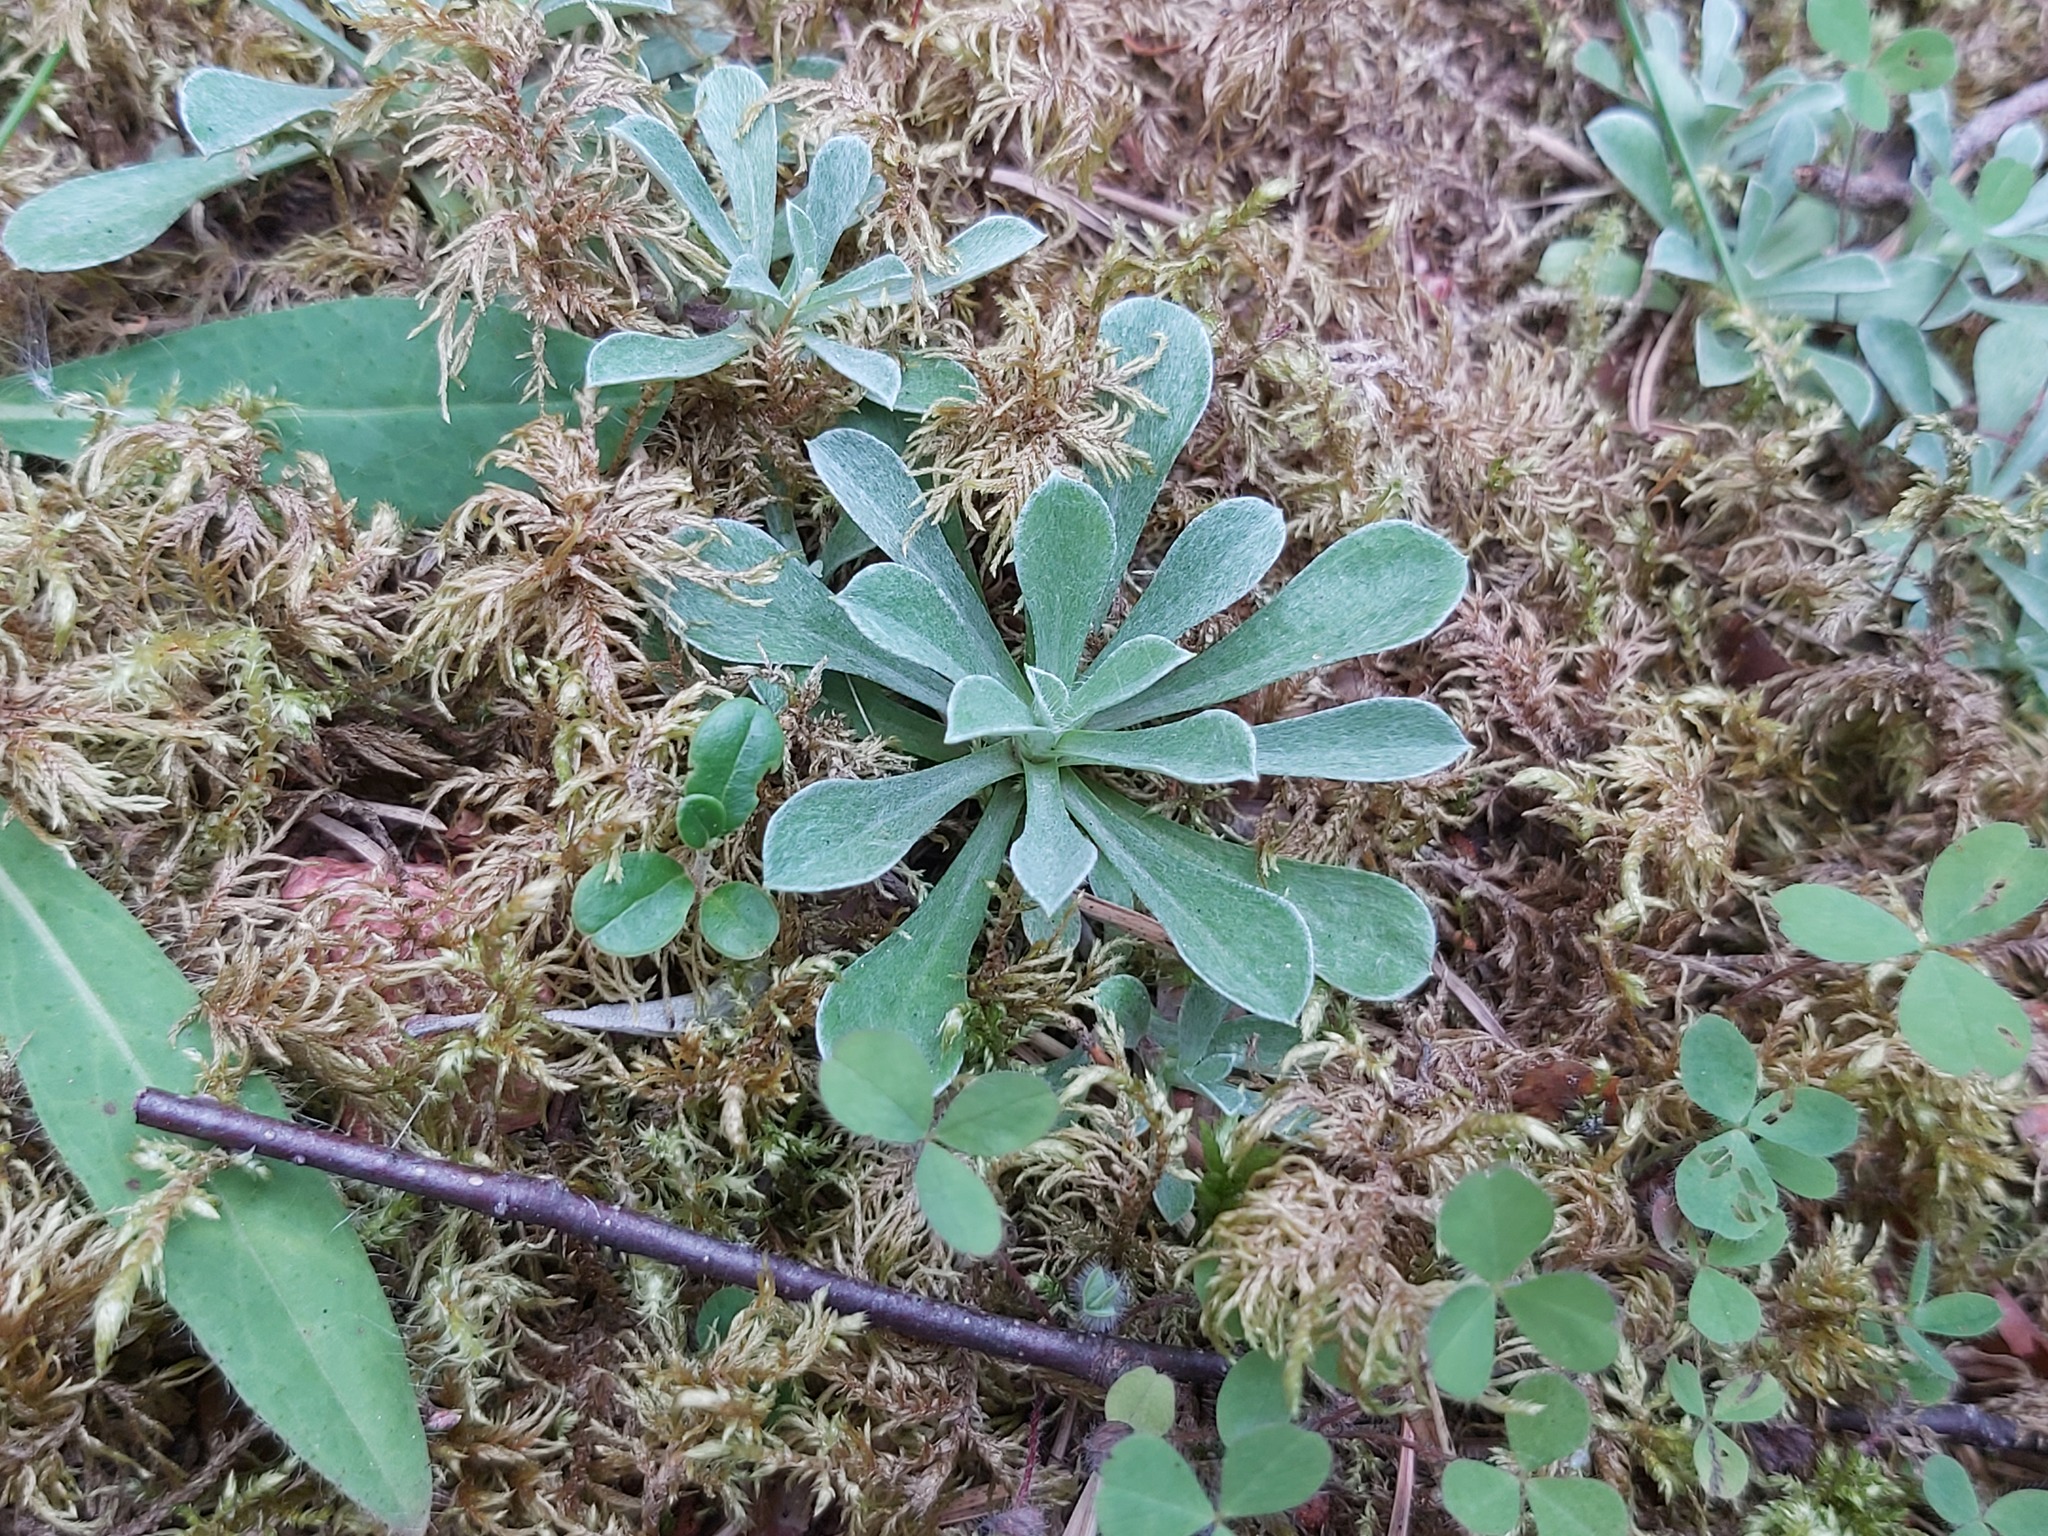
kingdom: Plantae
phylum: Tracheophyta
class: Magnoliopsida
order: Asterales
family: Asteraceae
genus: Antennaria
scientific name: Antennaria dioica
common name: Mountain everlasting
